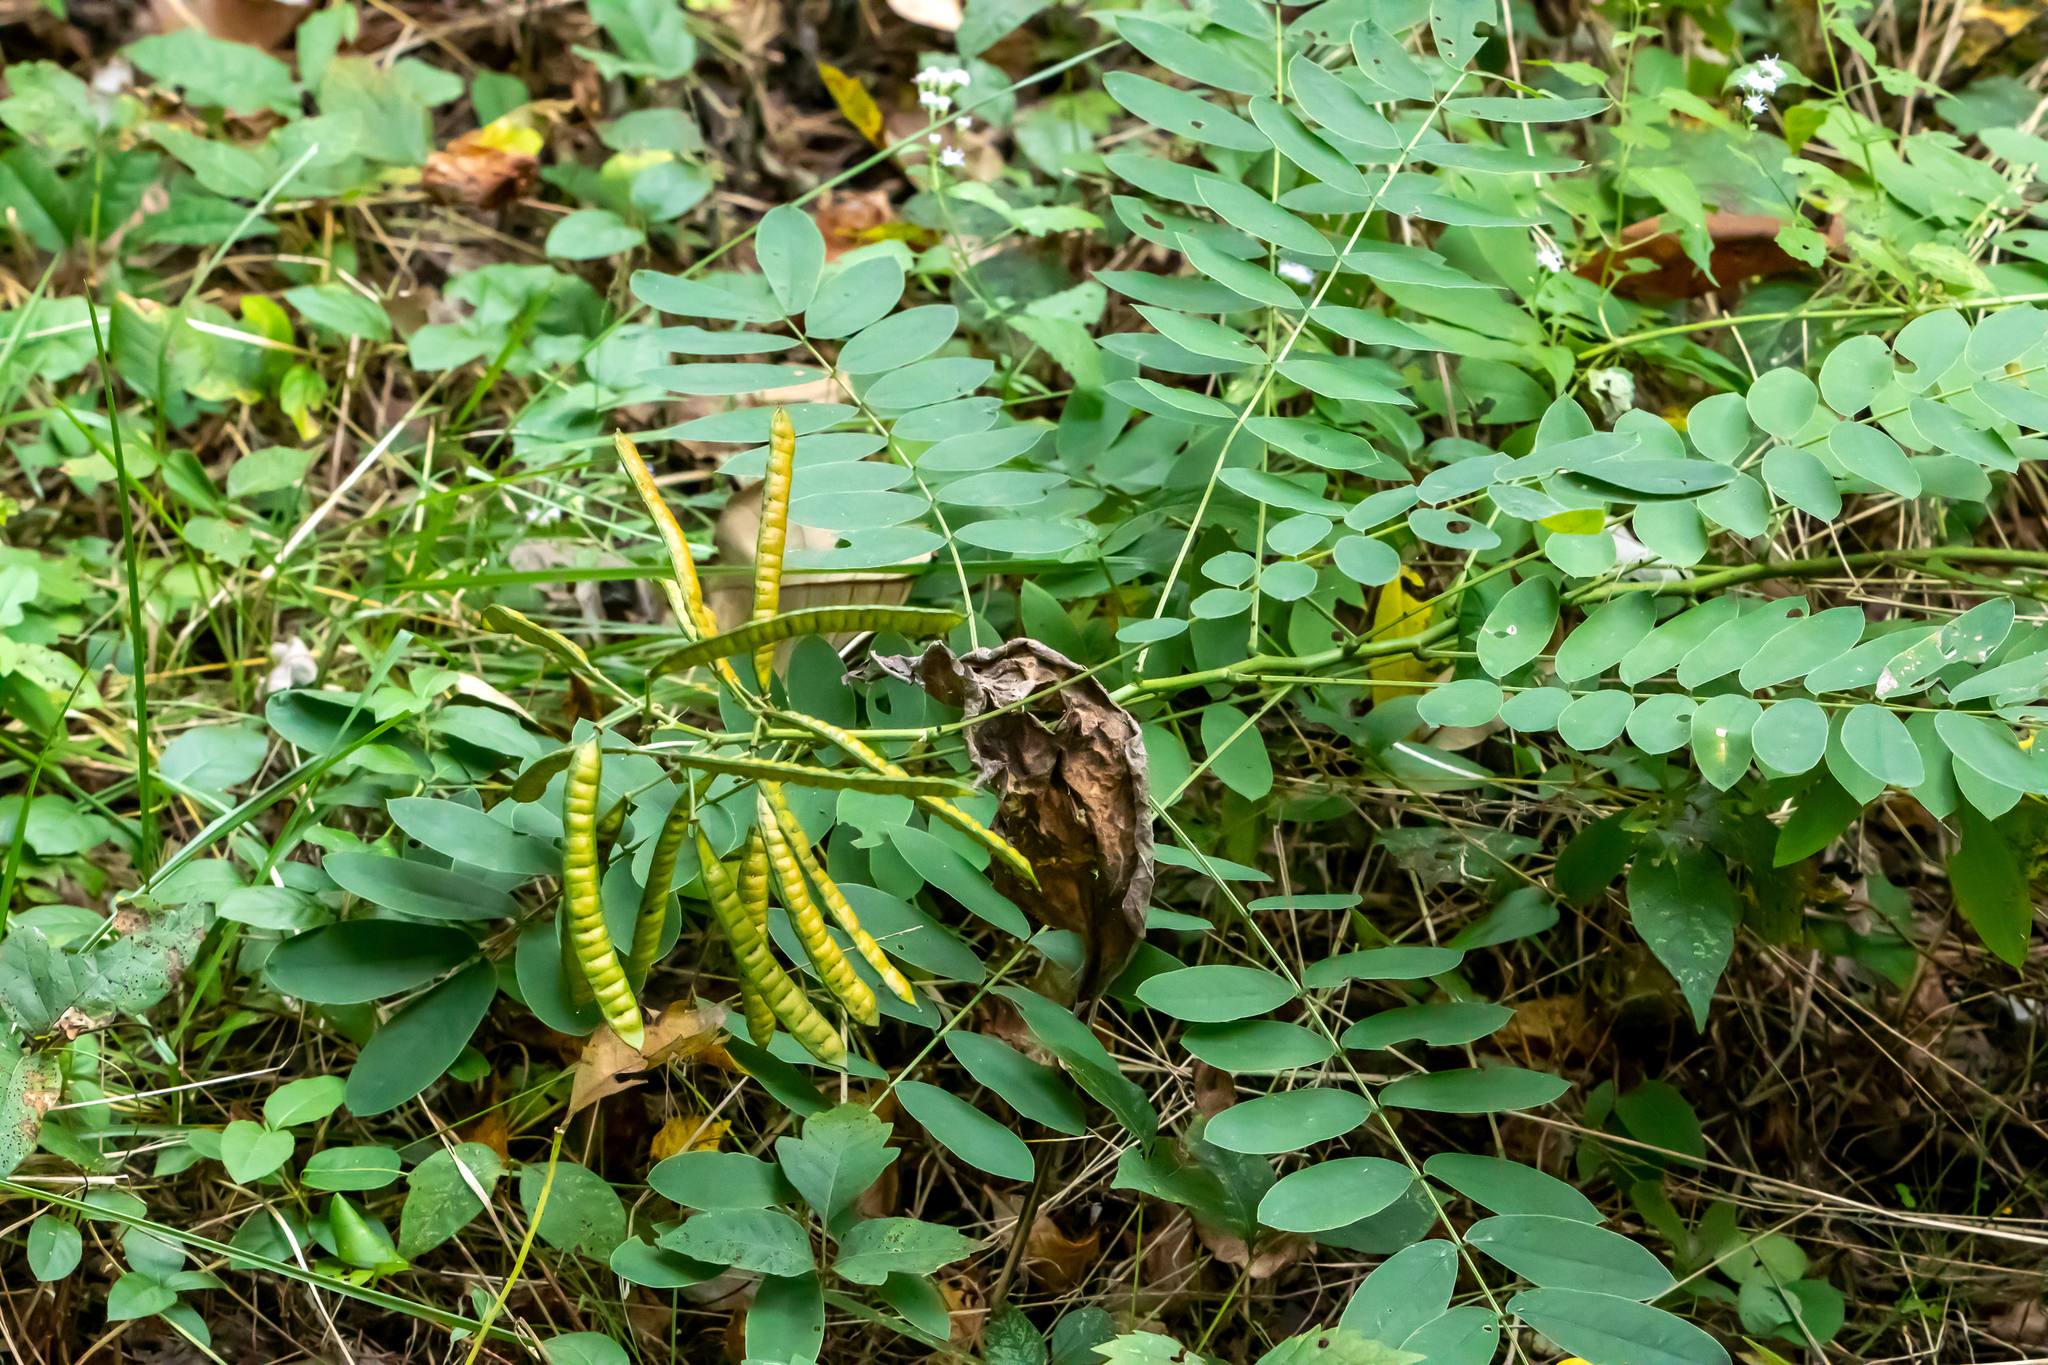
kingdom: Plantae
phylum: Tracheophyta
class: Magnoliopsida
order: Fabales
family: Fabaceae
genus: Senna
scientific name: Senna hebecarpa
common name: Wild senna
